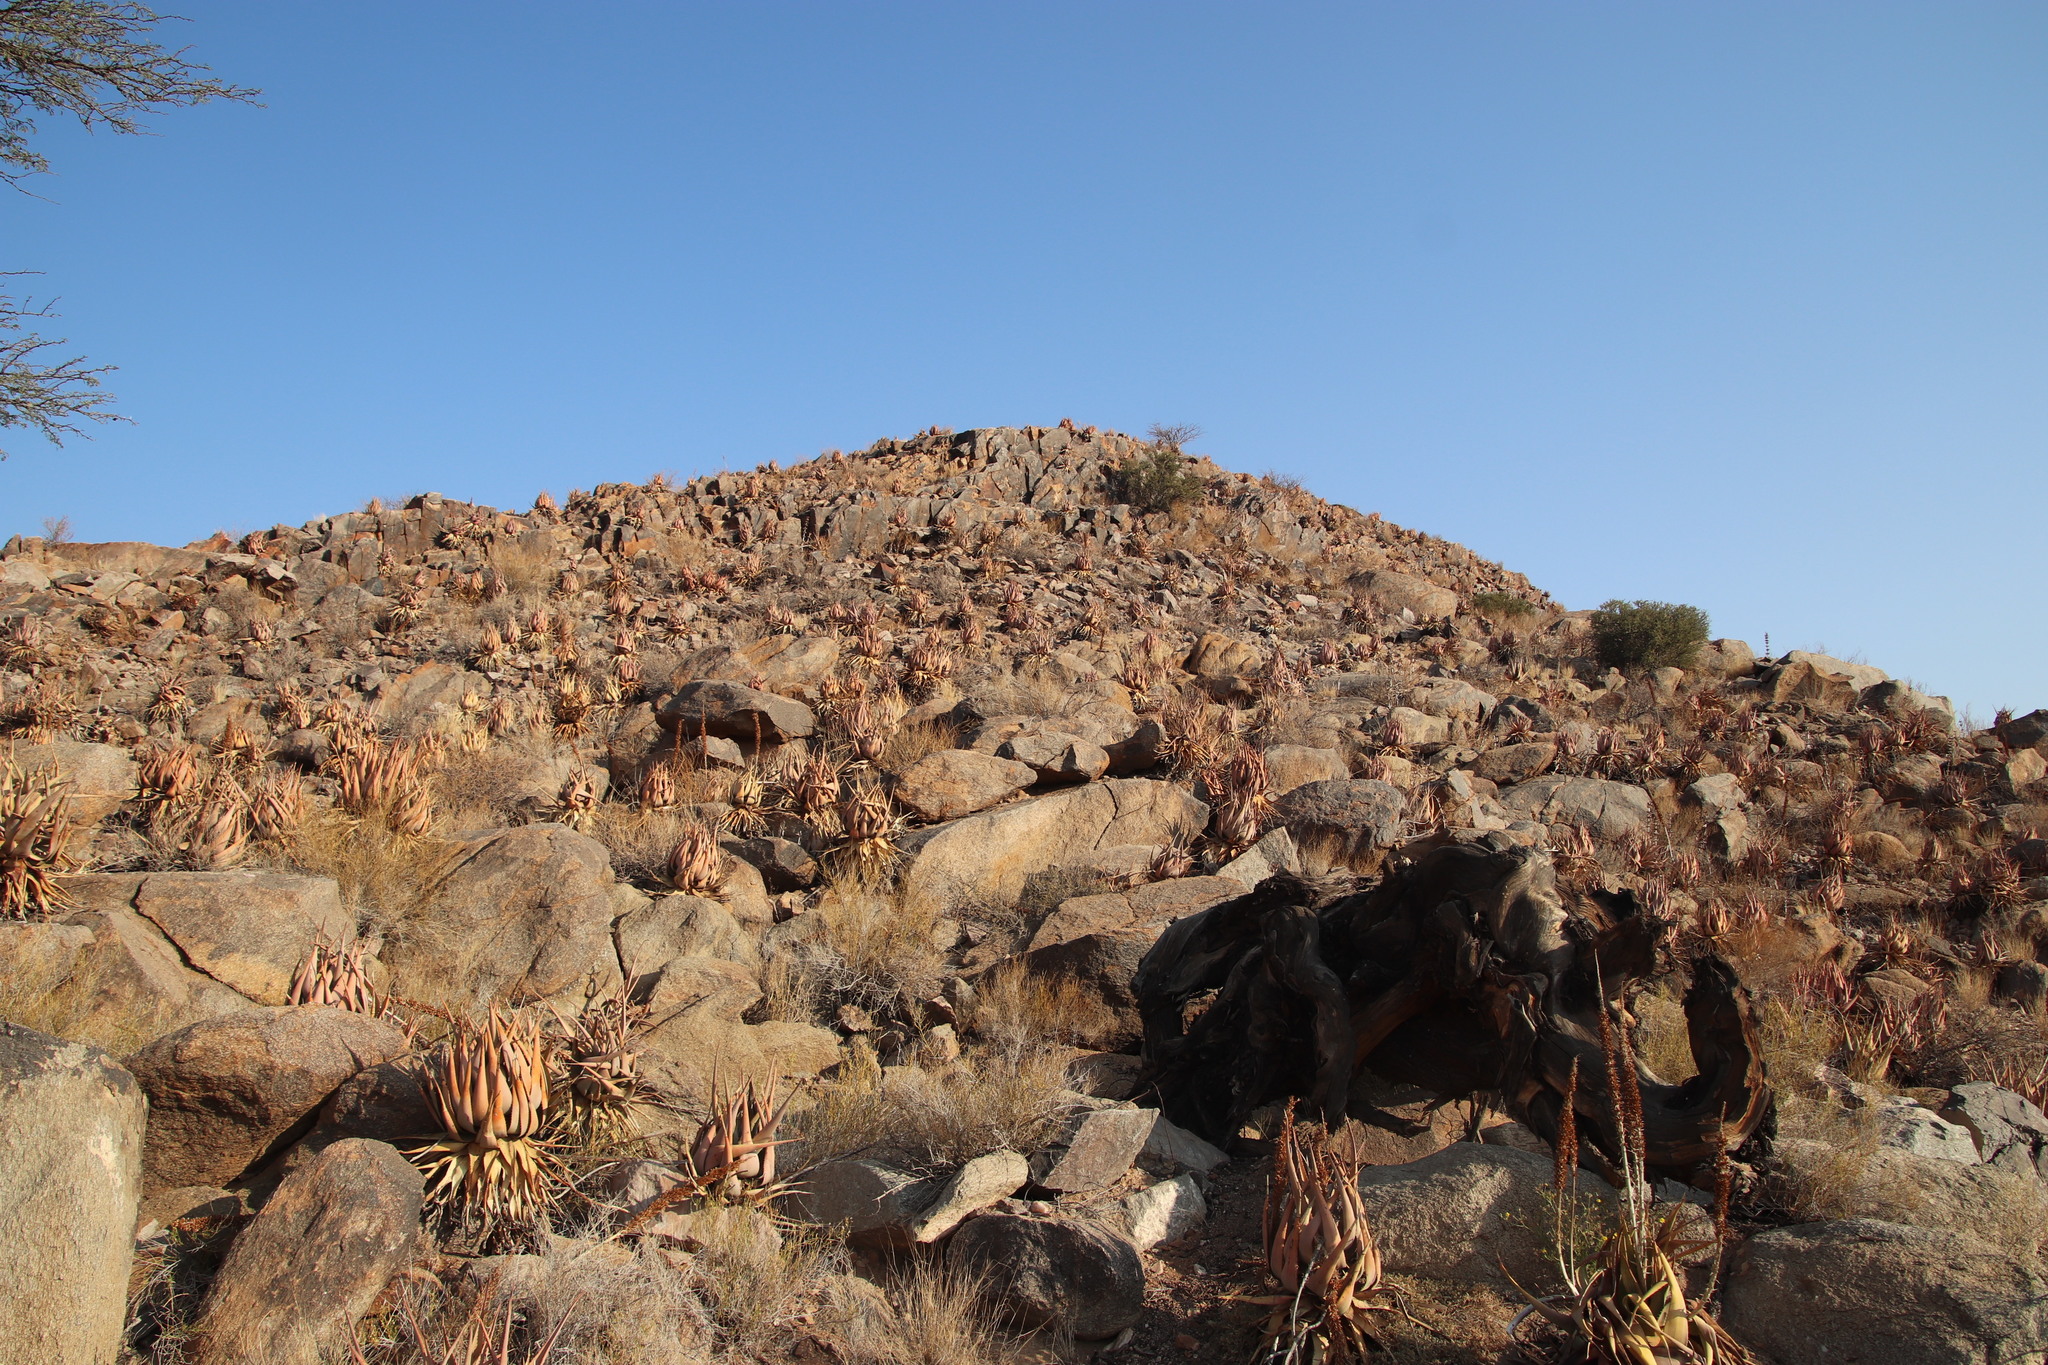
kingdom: Plantae
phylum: Tracheophyta
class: Liliopsida
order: Asparagales
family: Asphodelaceae
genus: Aloe
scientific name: Aloe gariepensis
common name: Orange river aloe
